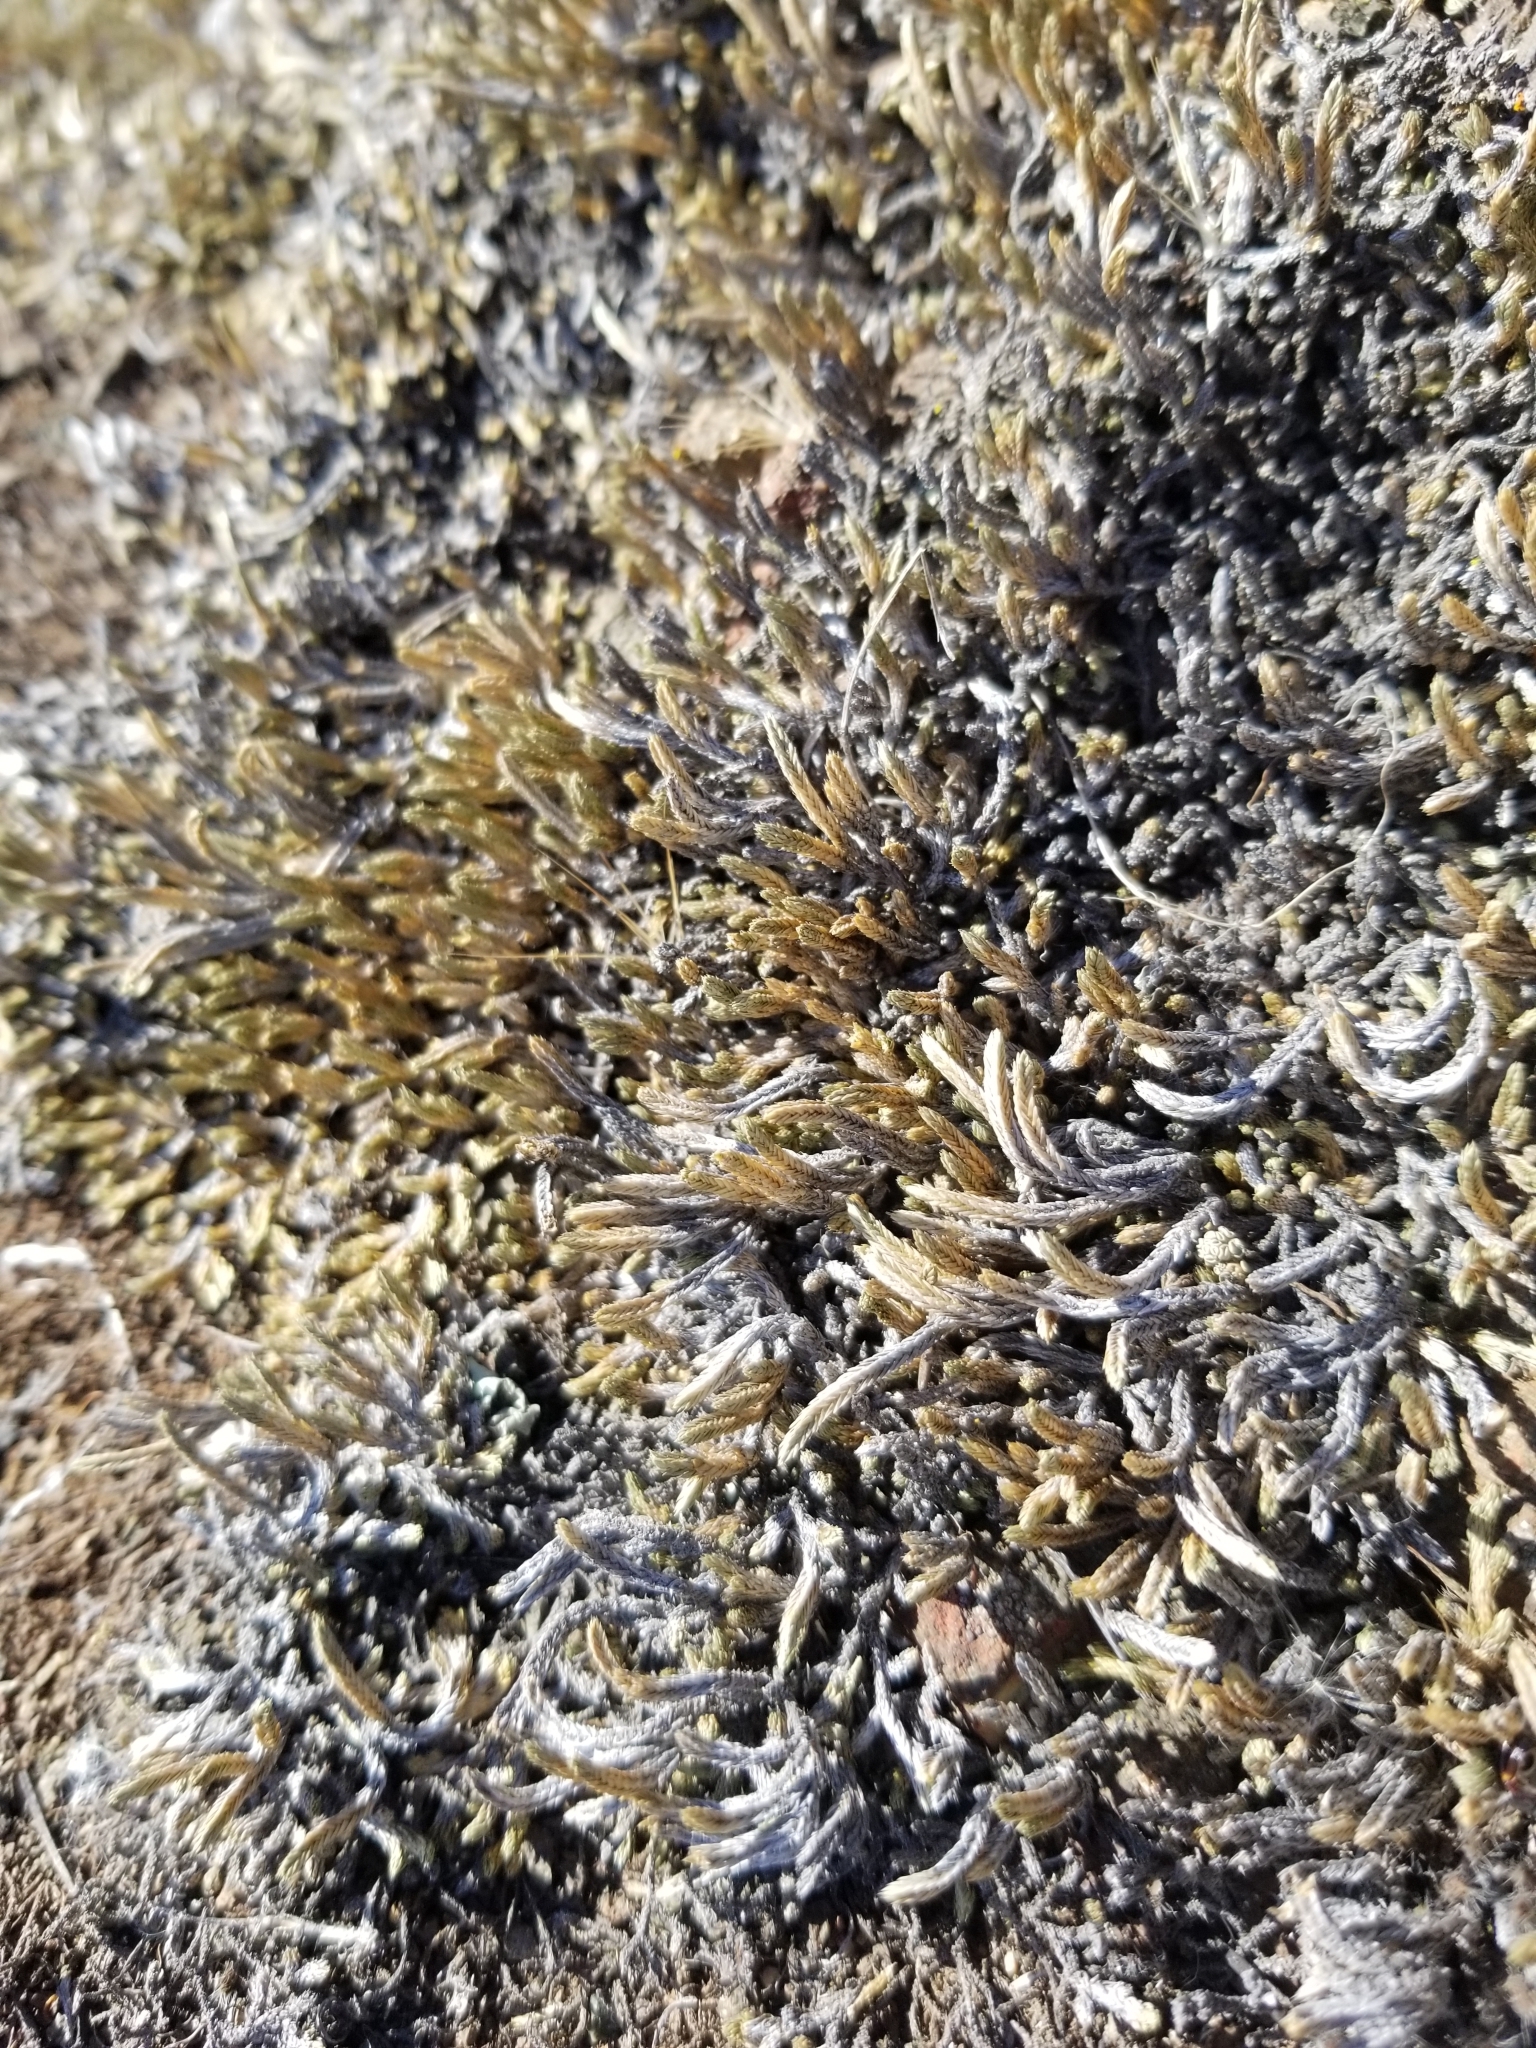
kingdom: Plantae
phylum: Tracheophyta
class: Lycopodiopsida
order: Selaginellales
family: Selaginellaceae
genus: Selaginella
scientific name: Selaginella wallacei
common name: Wallace's selaginella
